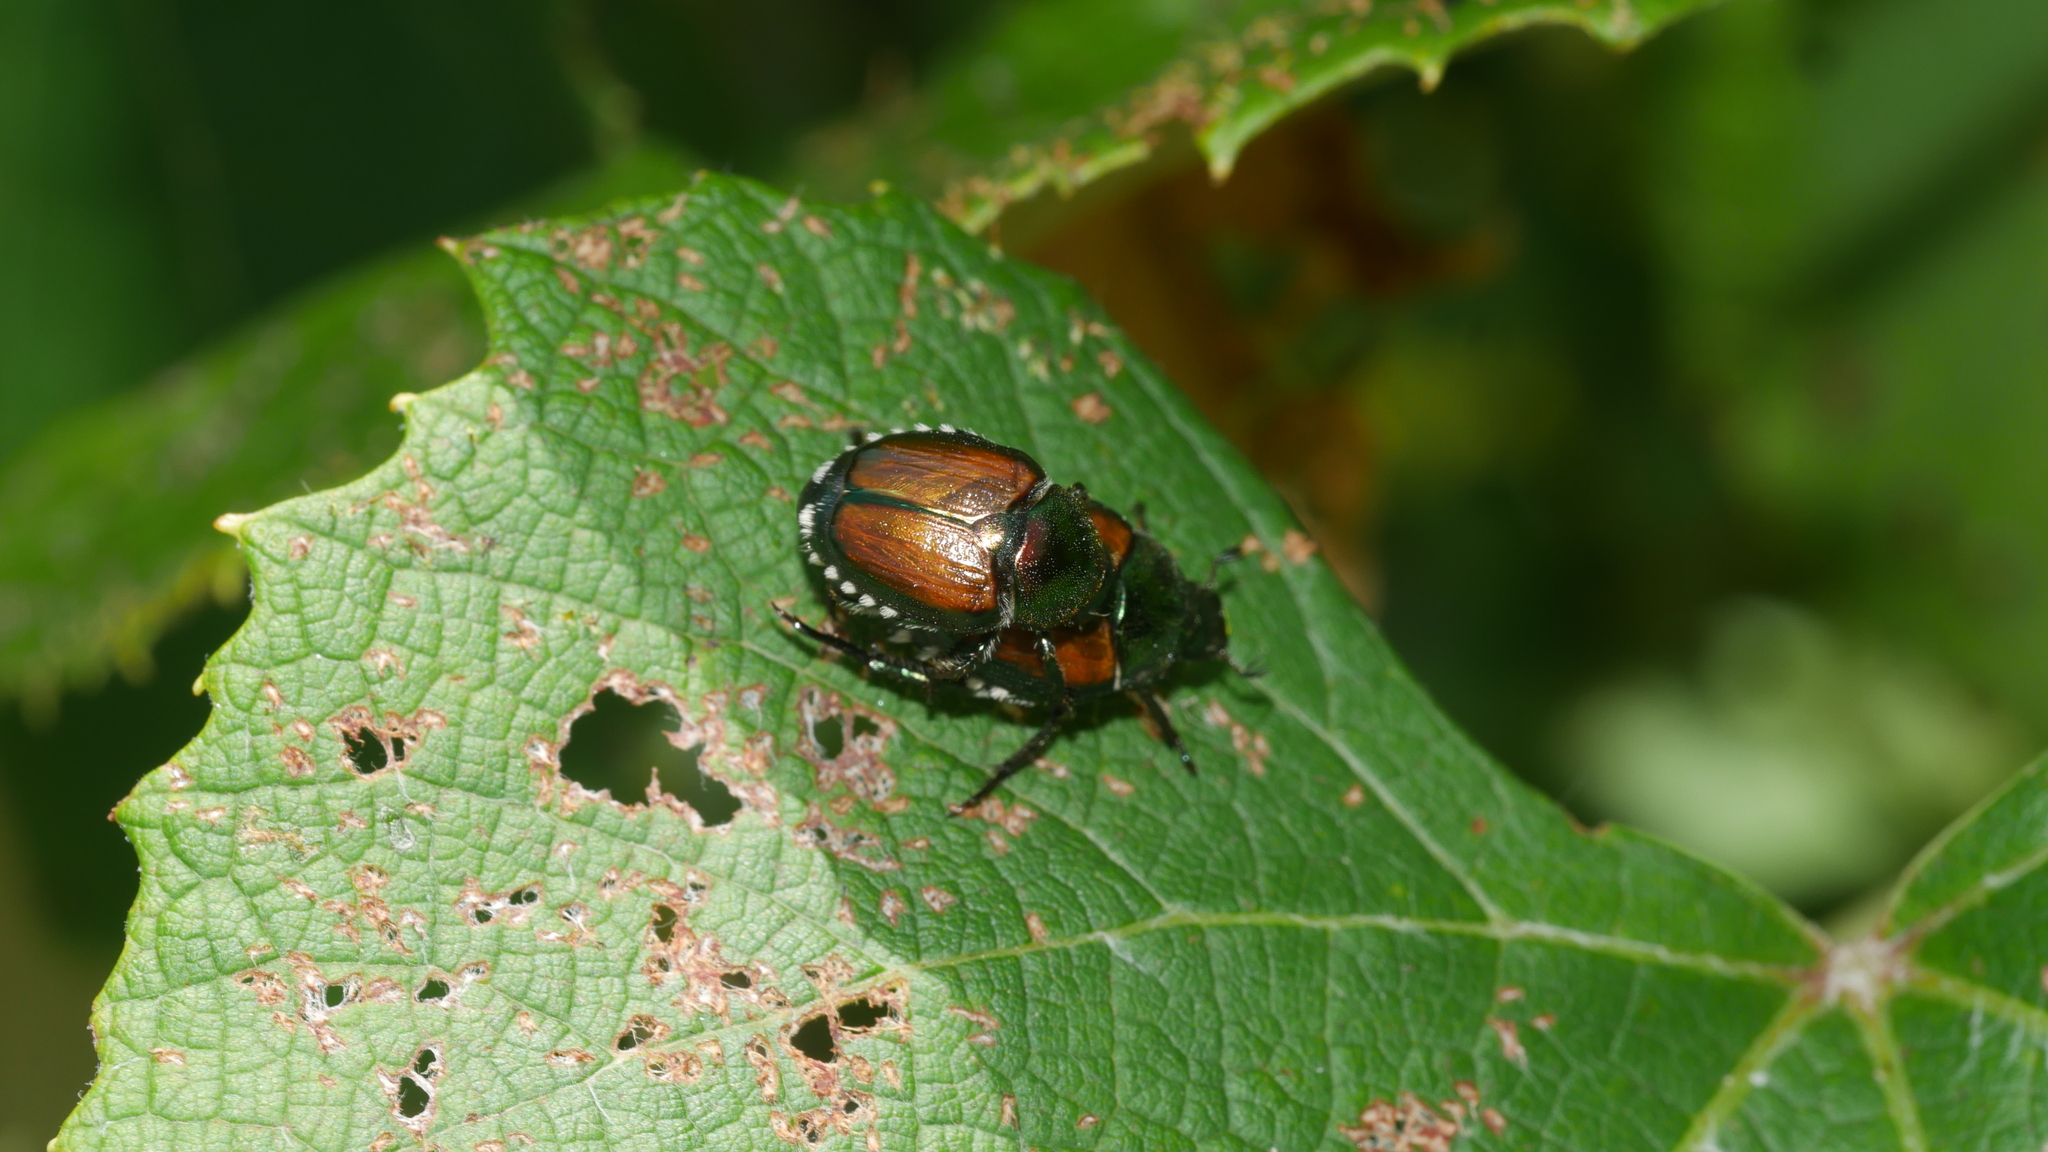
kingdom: Animalia
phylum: Arthropoda
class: Insecta
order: Coleoptera
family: Scarabaeidae
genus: Popillia
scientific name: Popillia japonica
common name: Japanese beetle
